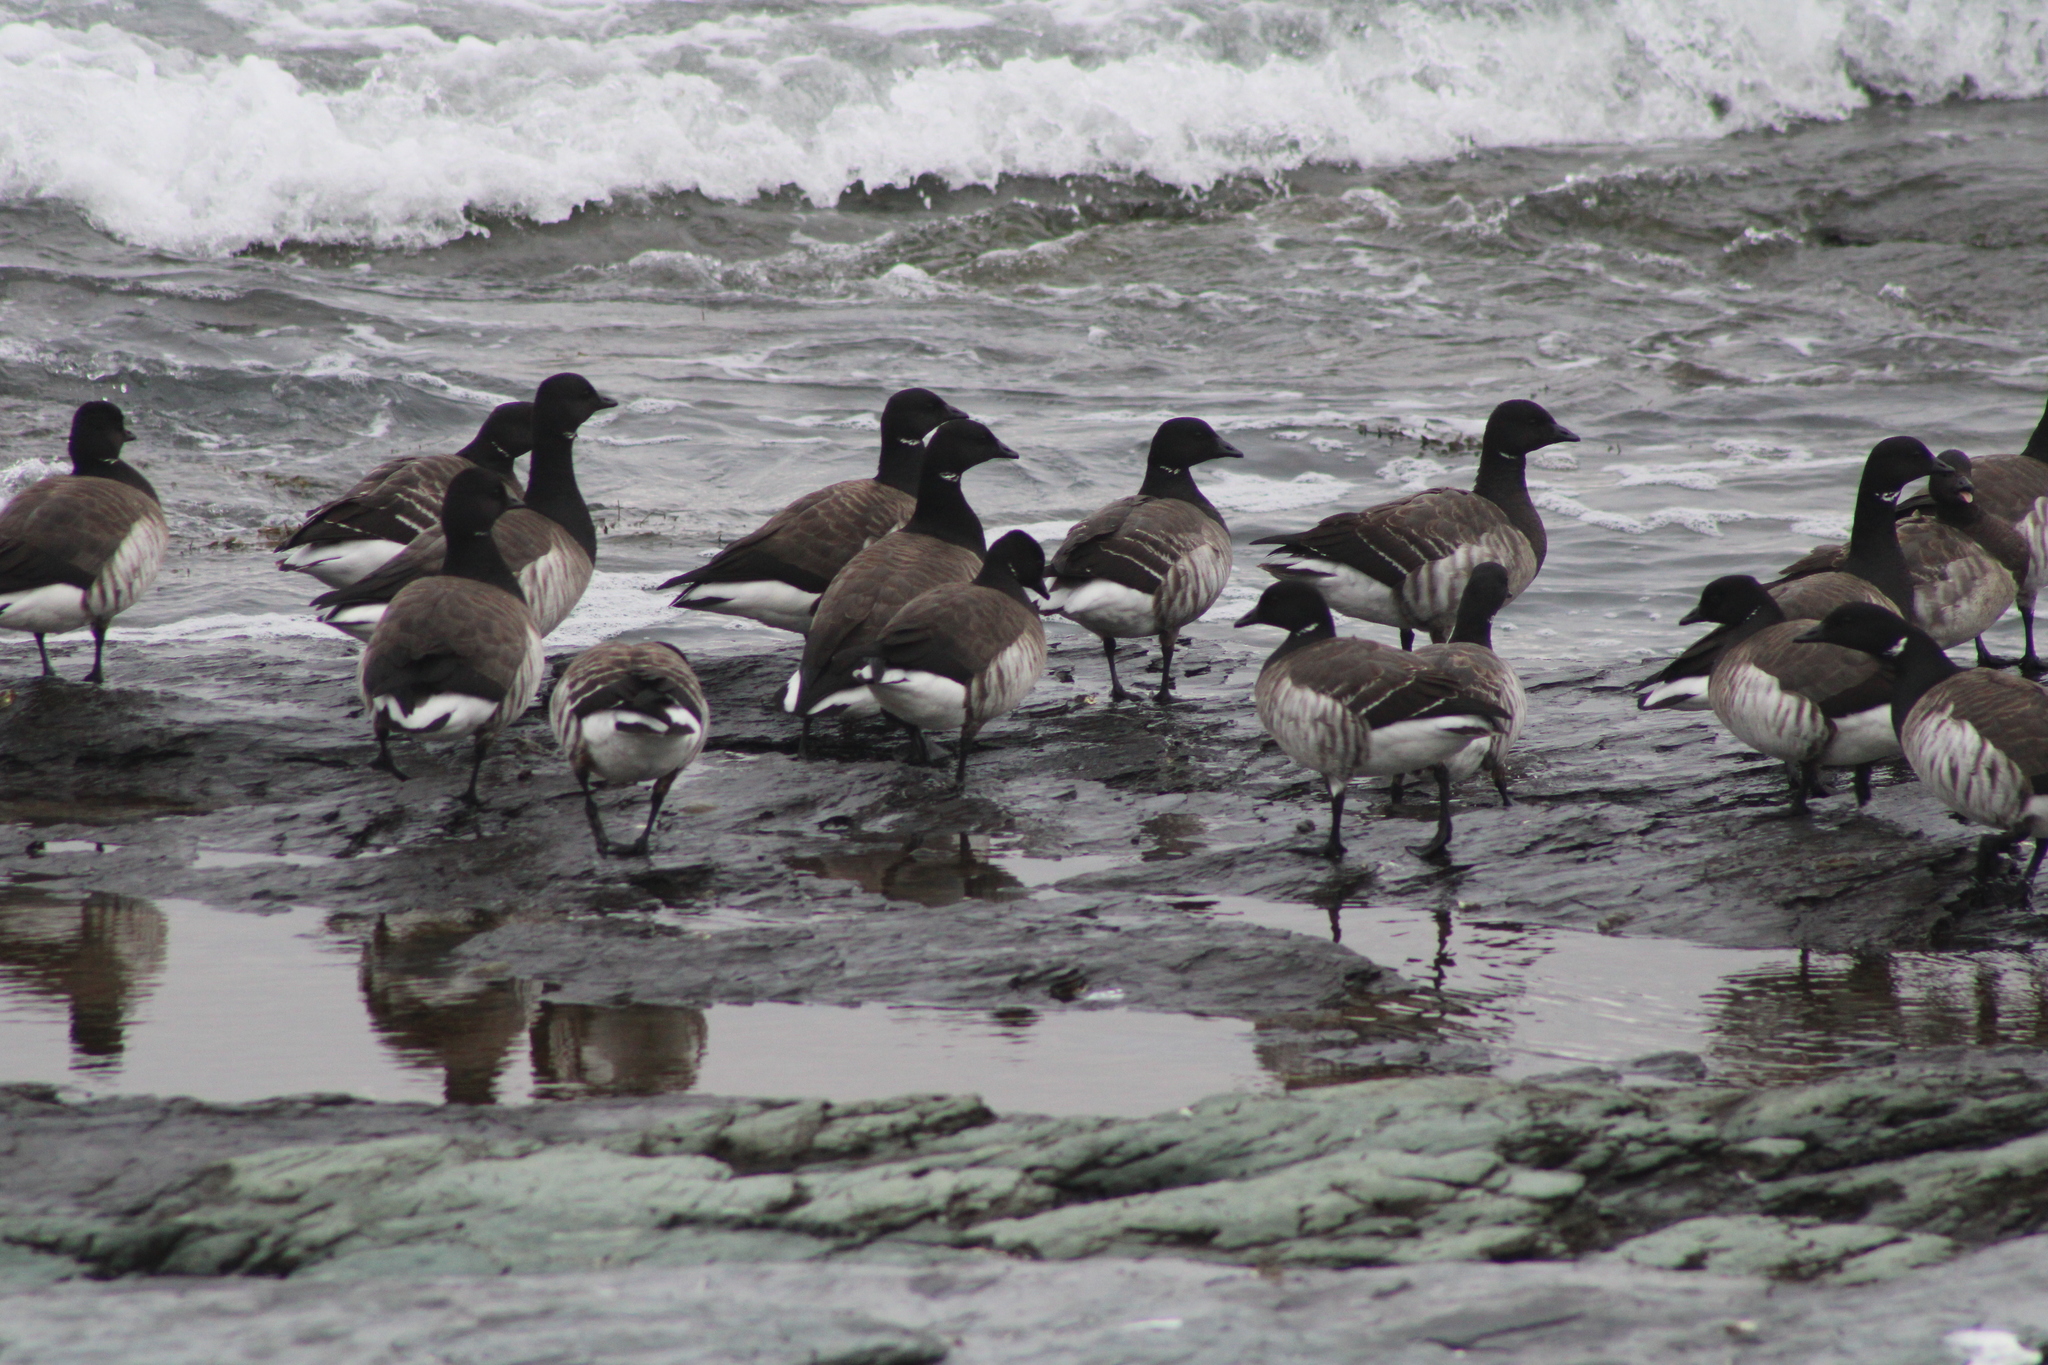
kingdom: Animalia
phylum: Chordata
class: Aves
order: Anseriformes
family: Anatidae
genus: Branta
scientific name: Branta bernicla
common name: Brant goose
